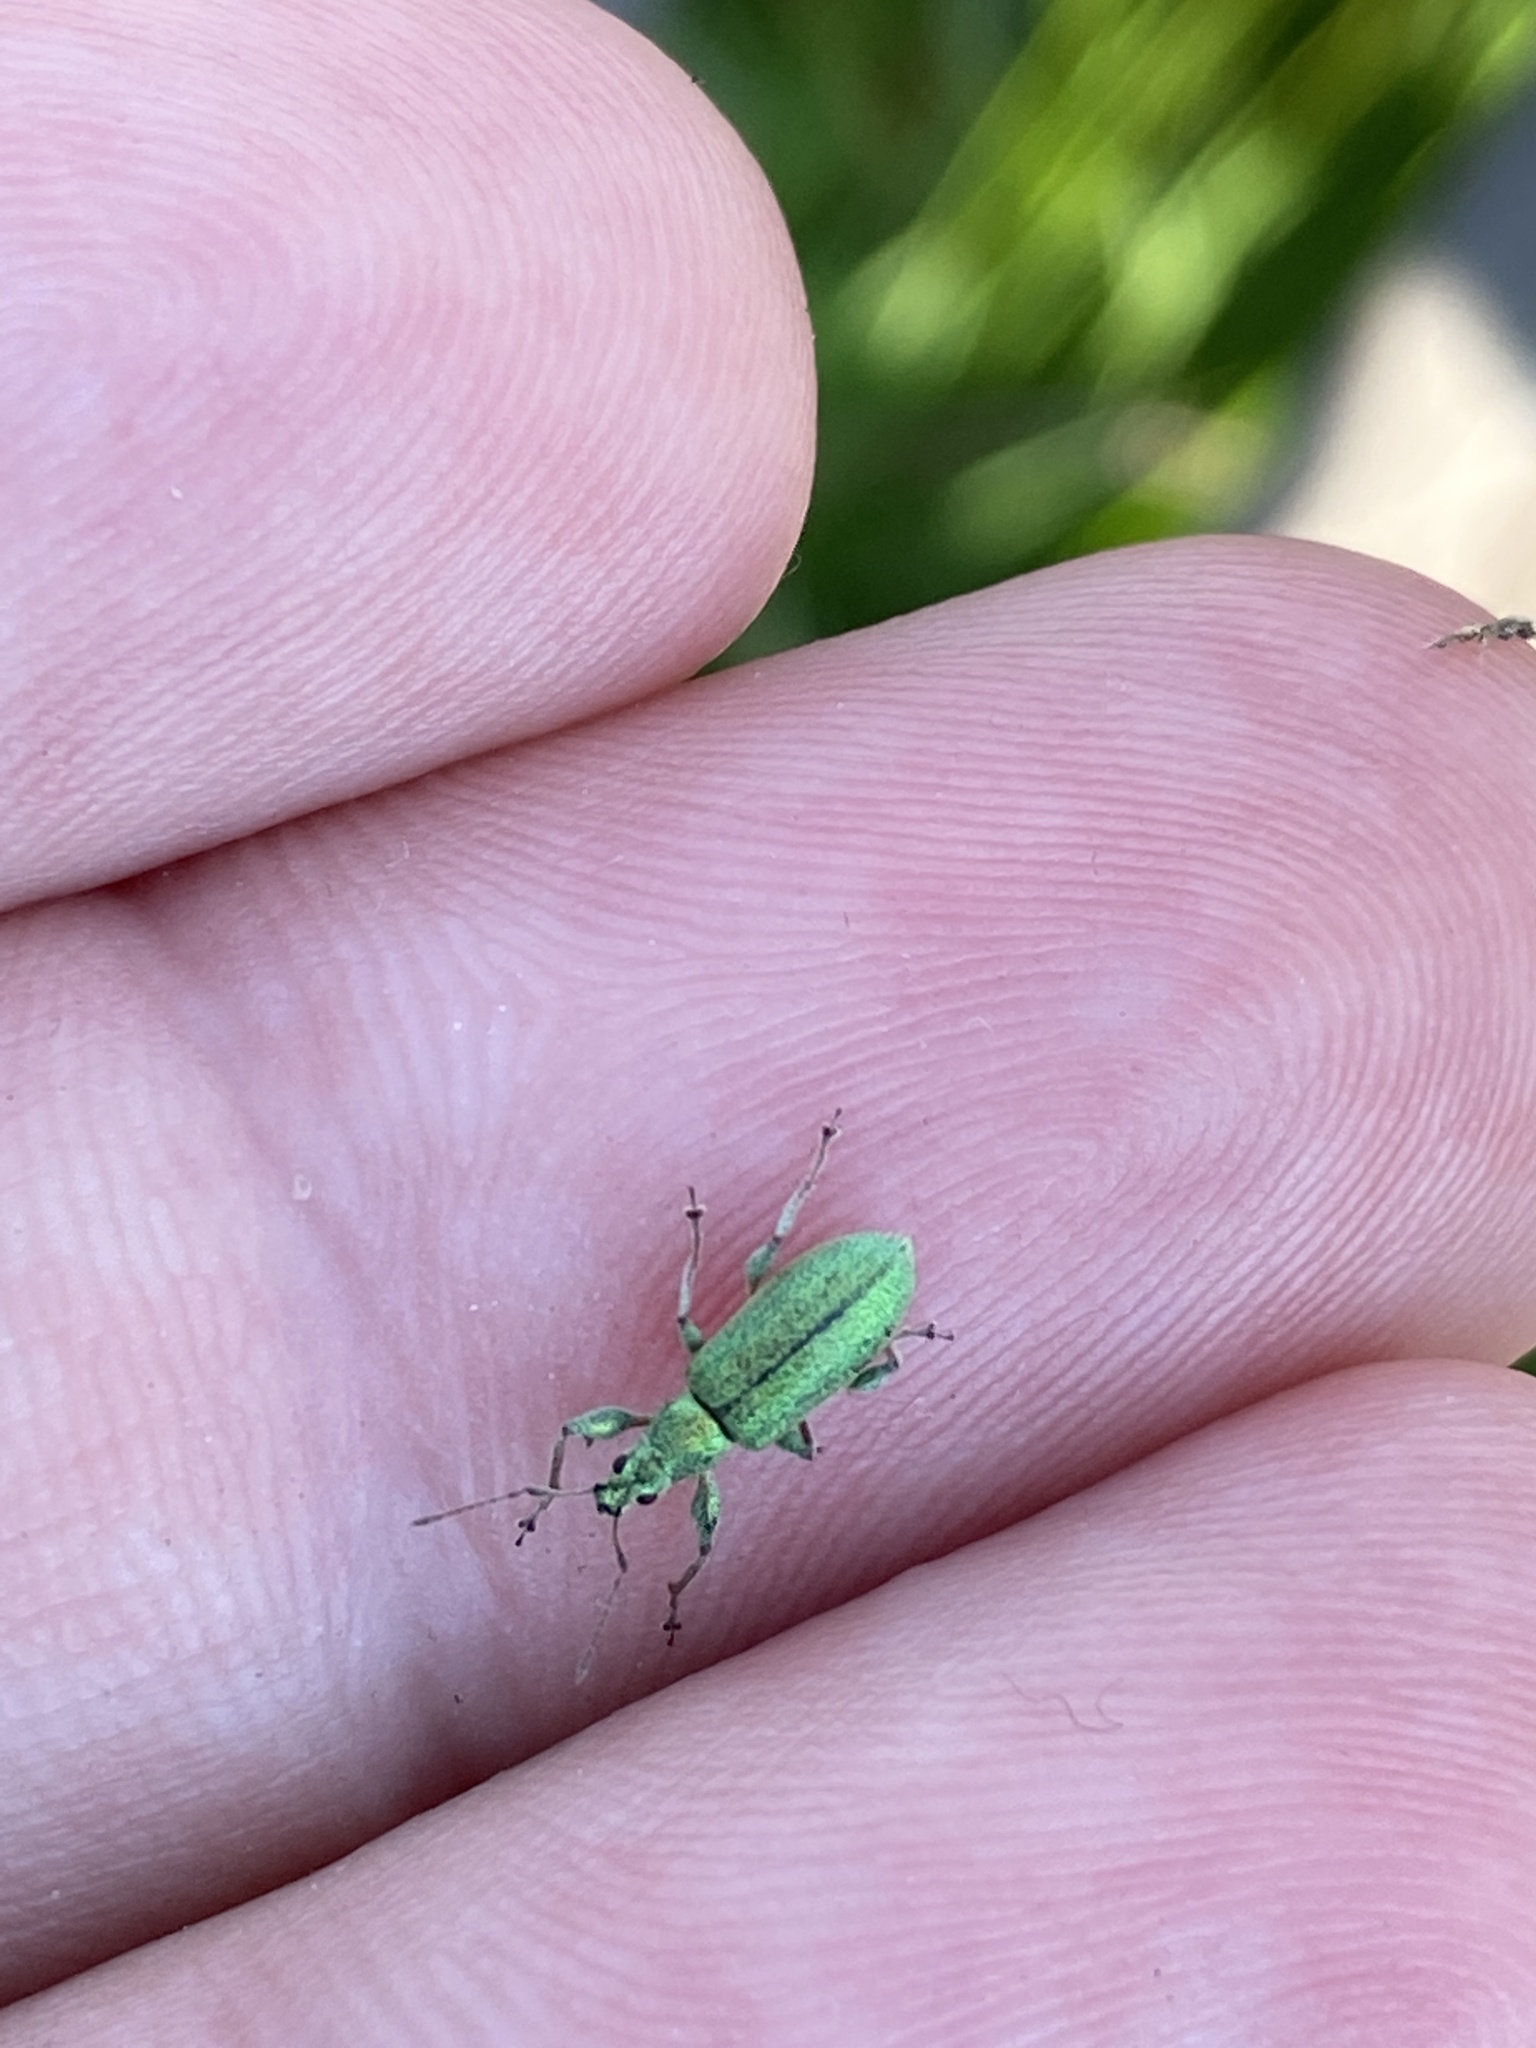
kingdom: Animalia
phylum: Arthropoda
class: Insecta
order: Coleoptera
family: Curculionidae
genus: Phyllobius
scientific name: Phyllobius arborator
